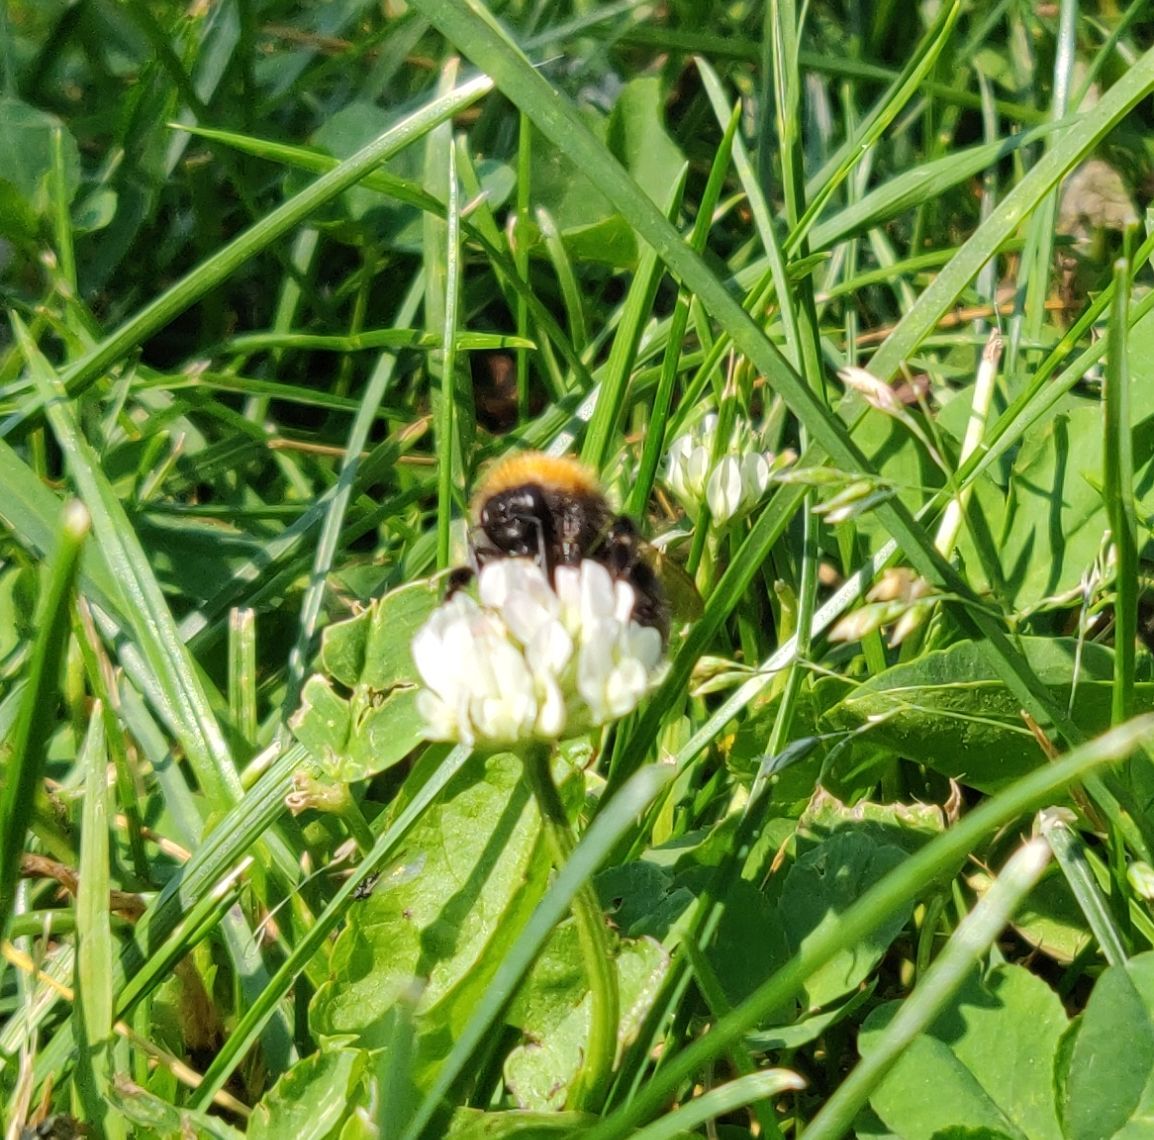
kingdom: Animalia
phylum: Arthropoda
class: Insecta
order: Hymenoptera
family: Apidae
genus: Bombus
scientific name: Bombus hypnorum
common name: New garden bumblebee
